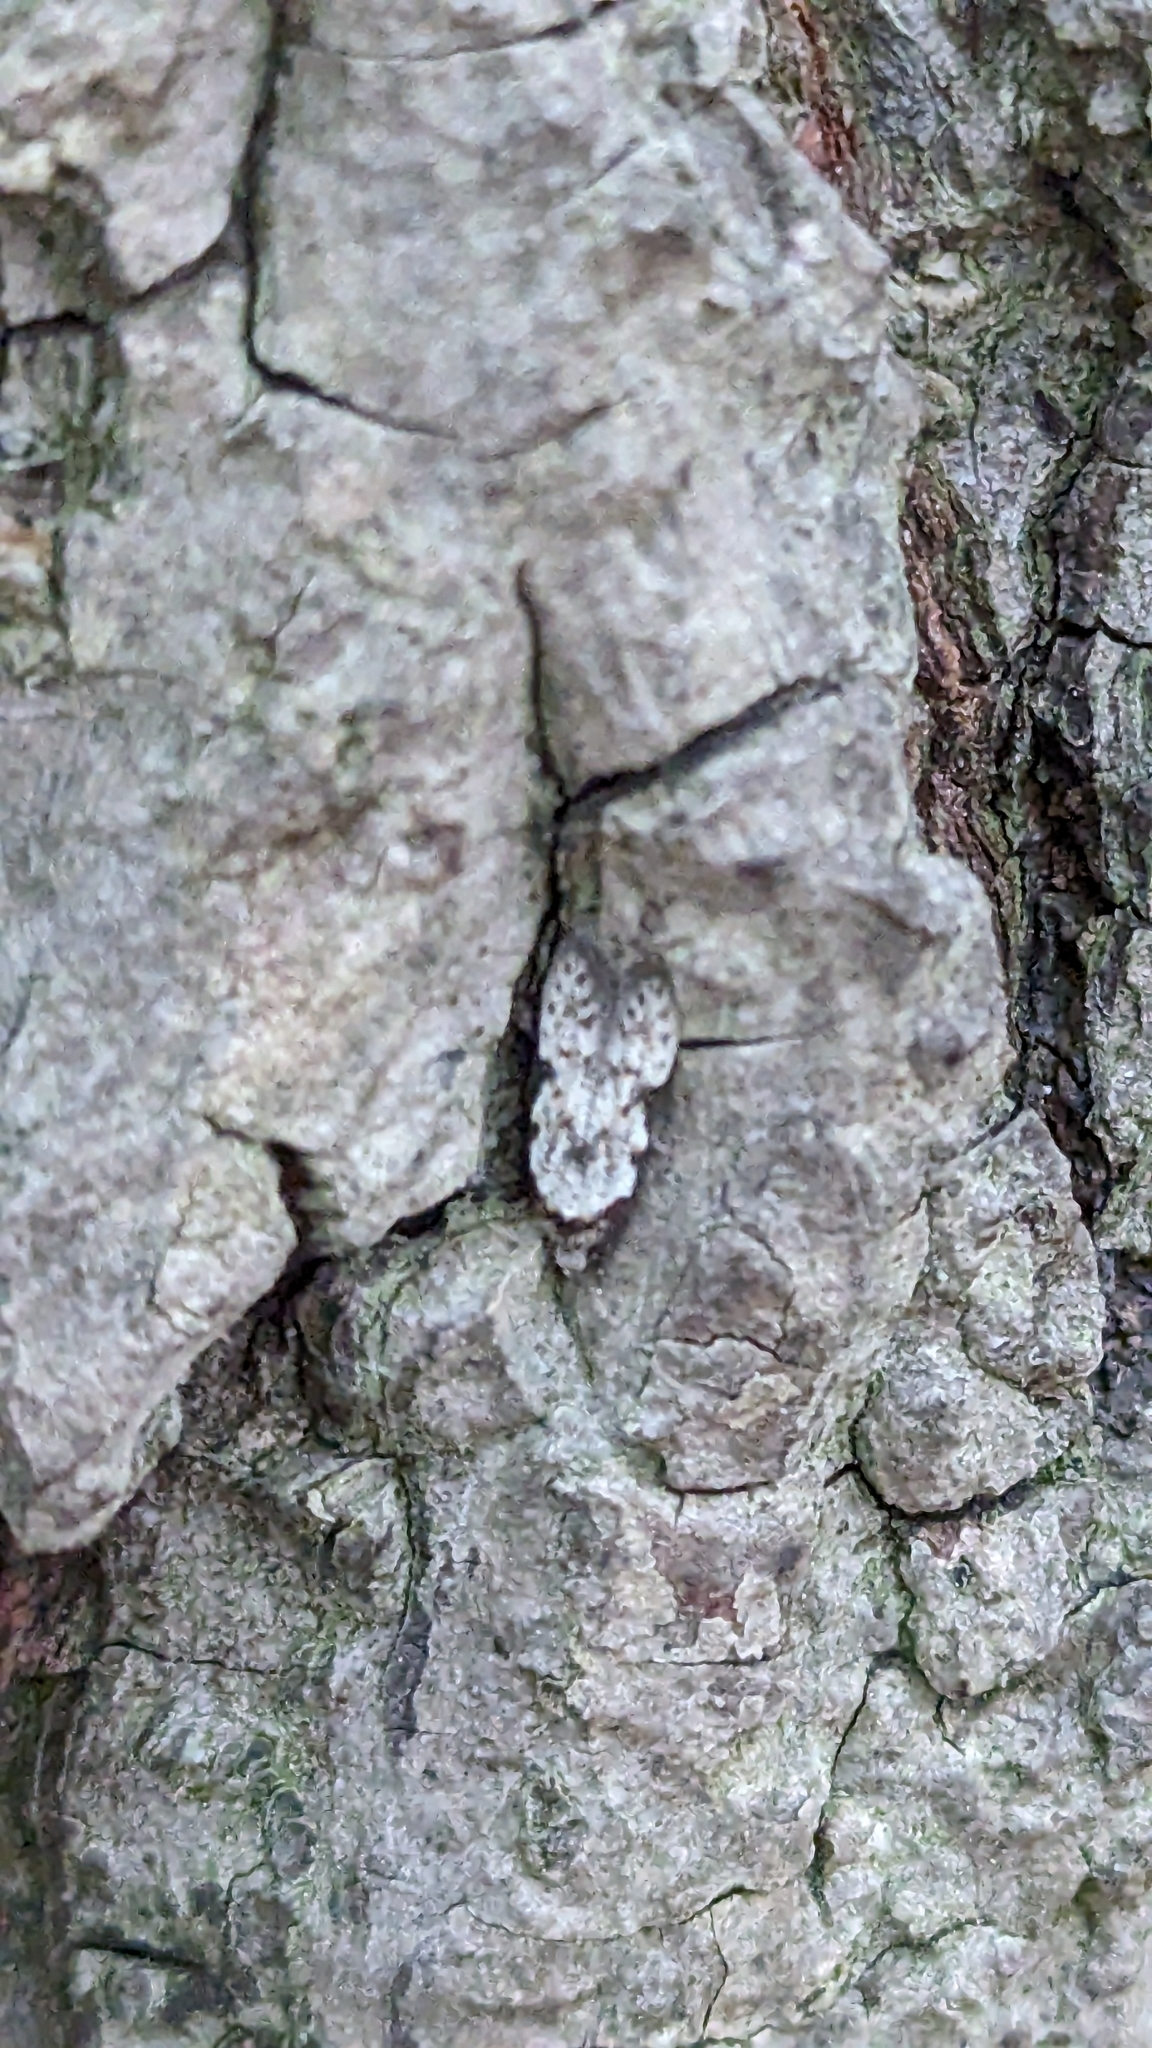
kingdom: Animalia
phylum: Arthropoda
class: Insecta
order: Lepidoptera
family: Autostichidae
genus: Taygete
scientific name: Taygete attributella
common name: Triangle-marked twirler moth
